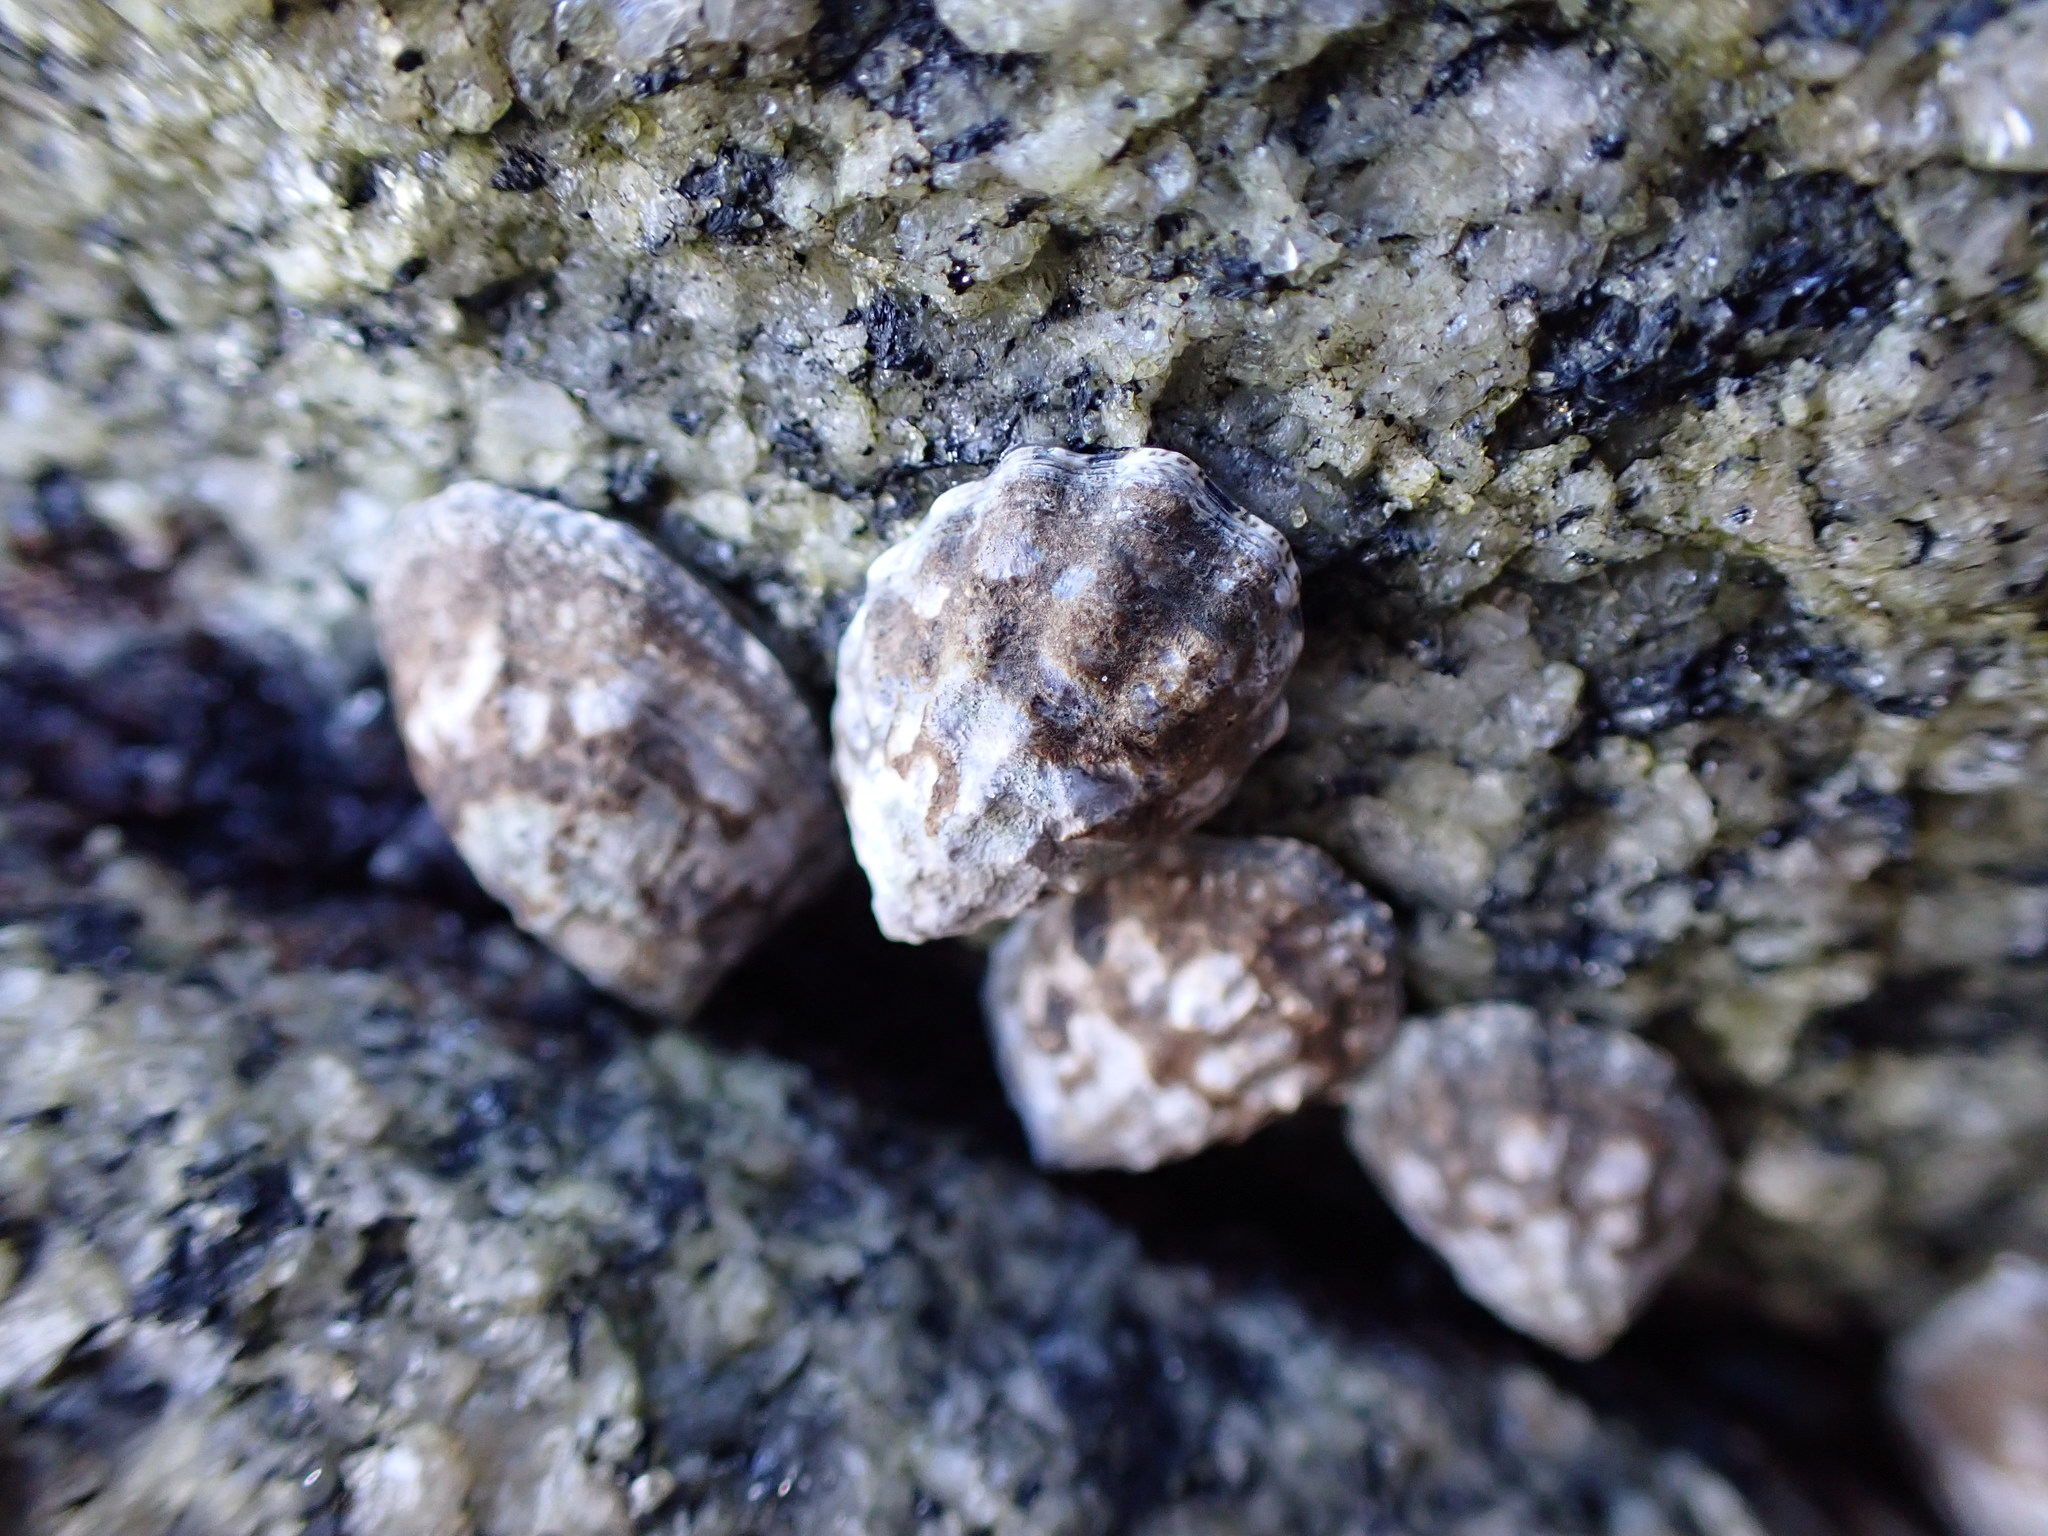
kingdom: Animalia
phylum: Mollusca
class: Gastropoda
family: Lottiidae
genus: Lottia
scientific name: Lottia digitalis
